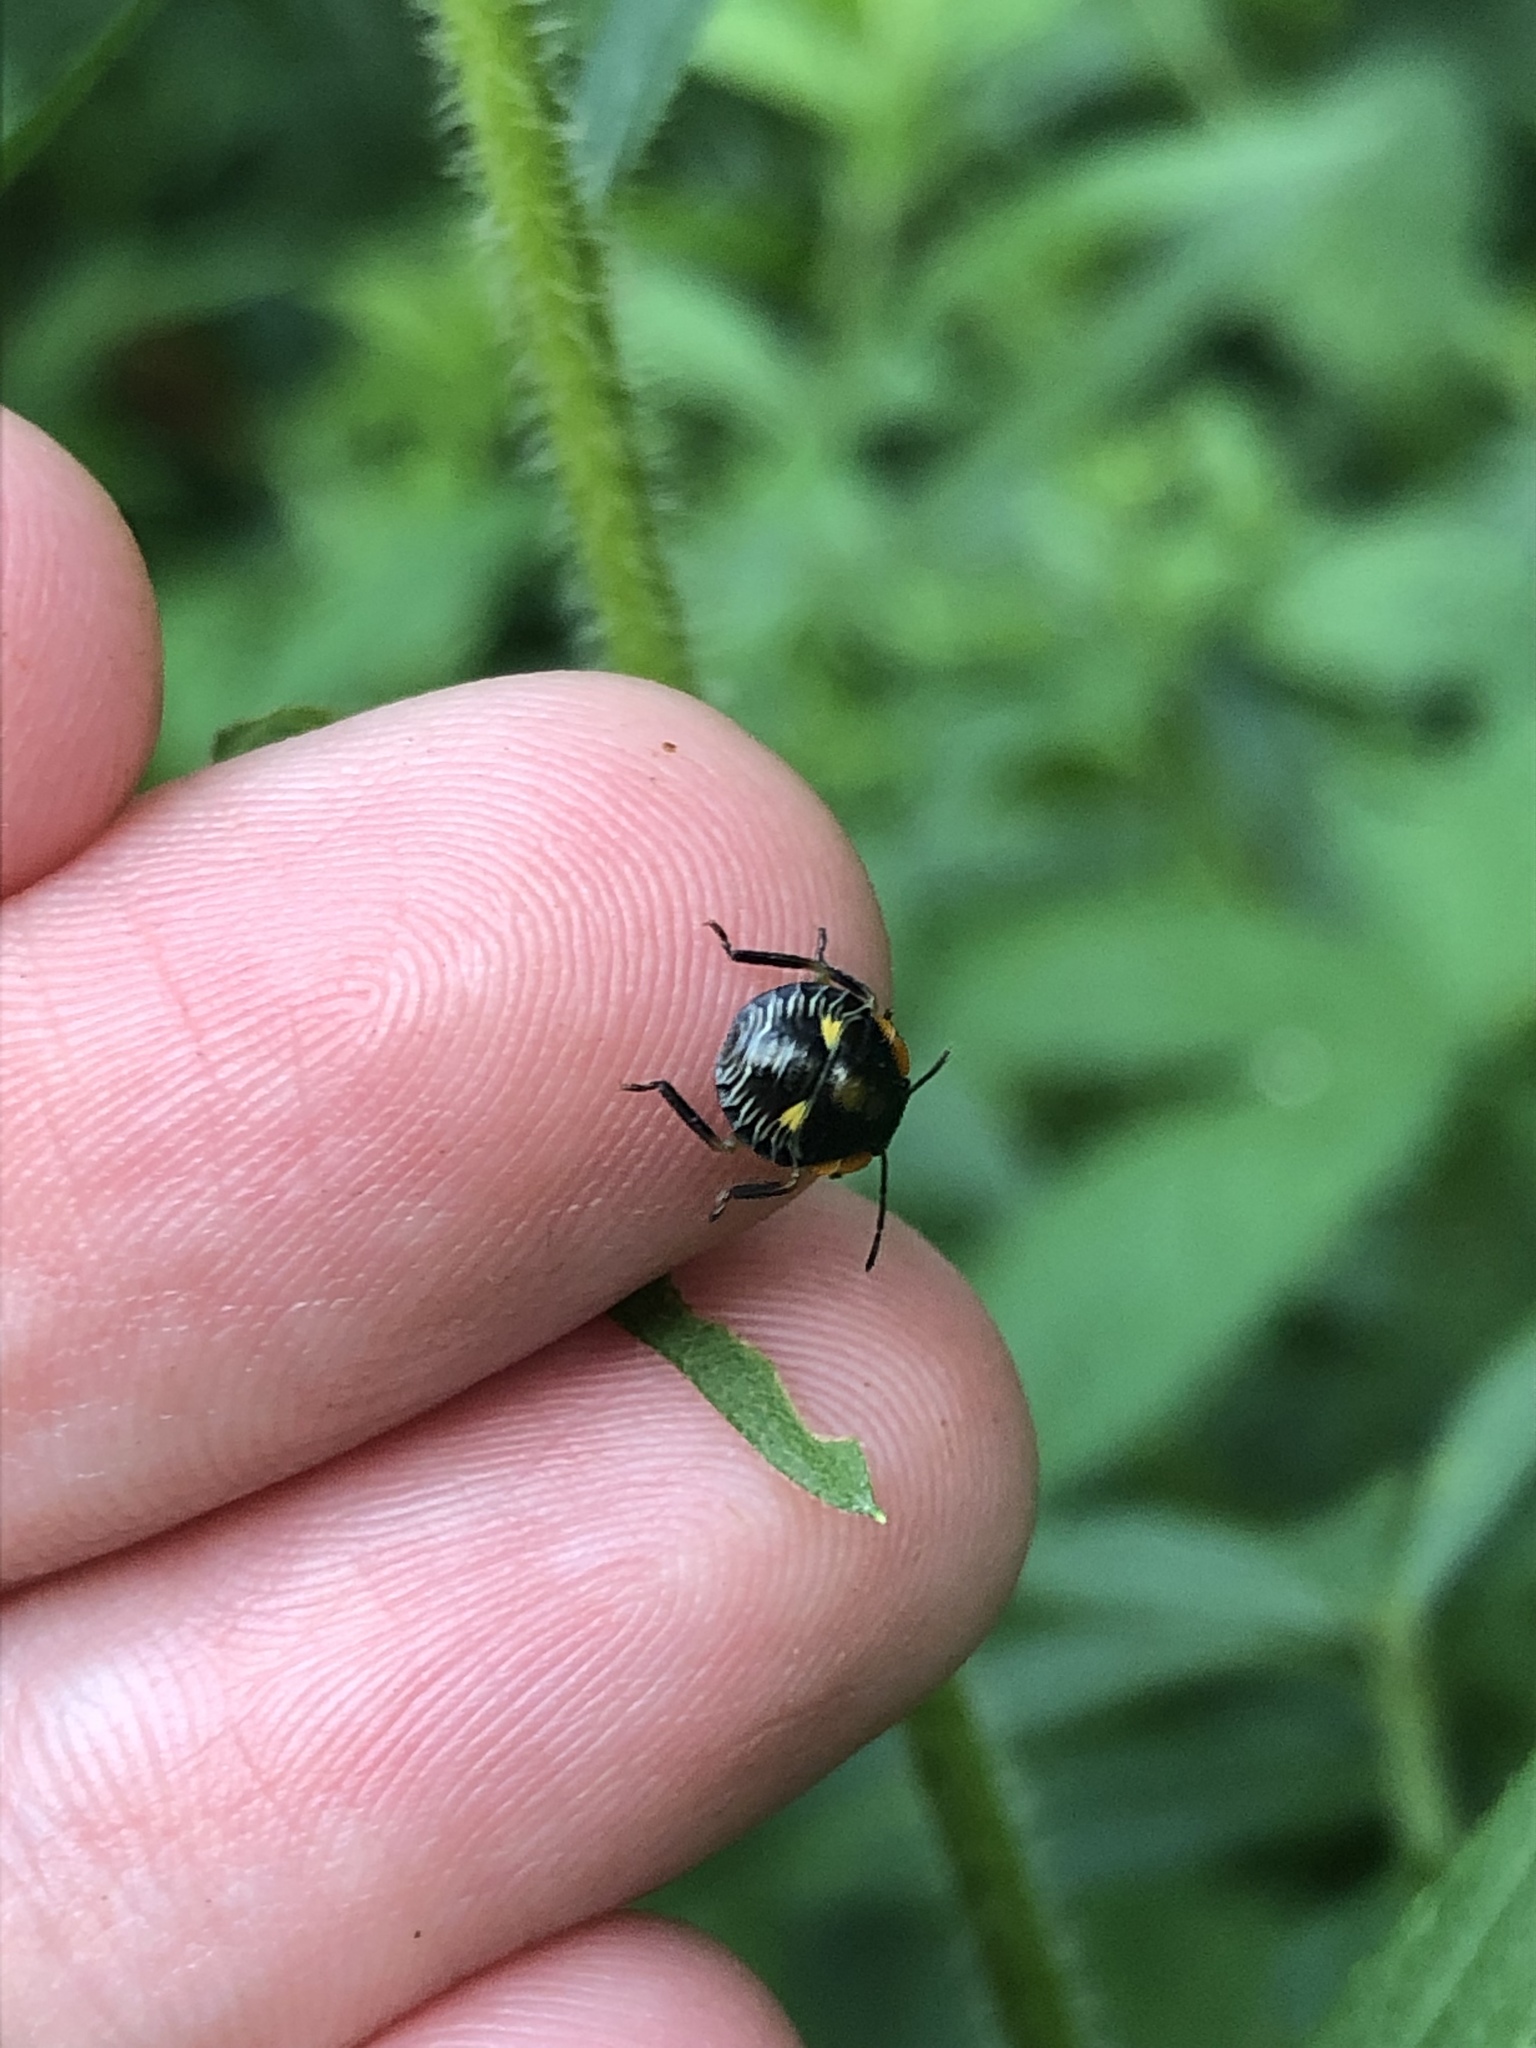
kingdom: Animalia
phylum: Arthropoda
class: Insecta
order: Hemiptera
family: Pentatomidae
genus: Chinavia
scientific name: Chinavia hilaris
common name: Green stink bug
